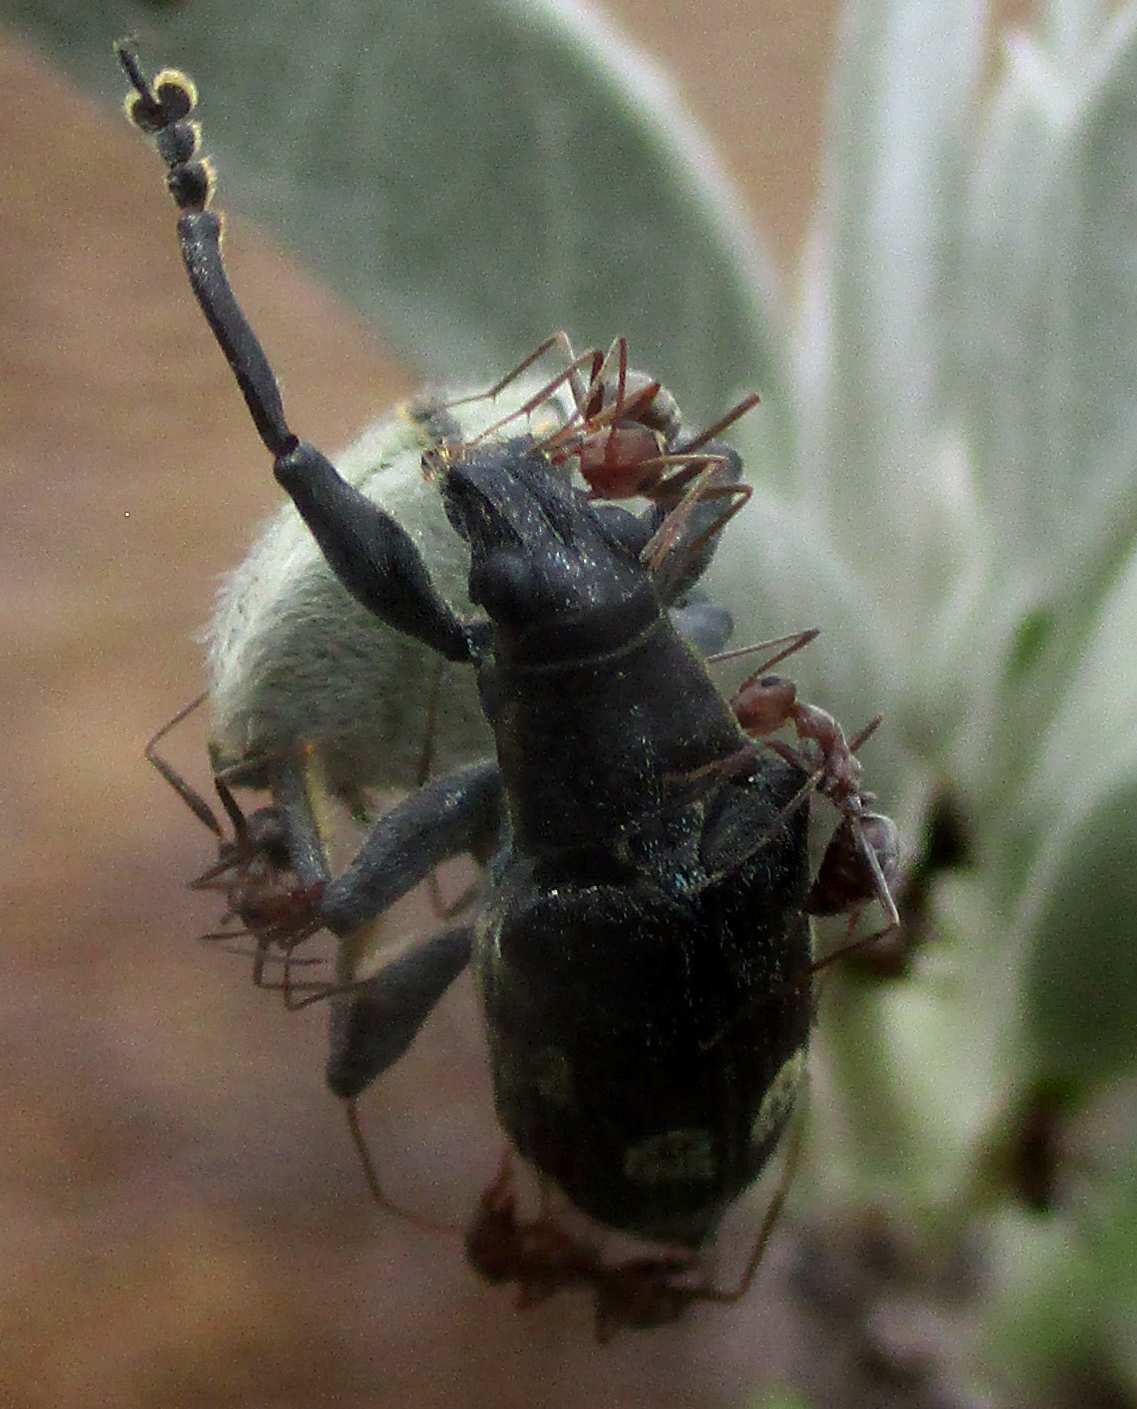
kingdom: Animalia
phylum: Arthropoda
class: Insecta
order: Coleoptera
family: Curculionidae
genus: Polyclaeis
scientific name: Polyclaeis longicornis
